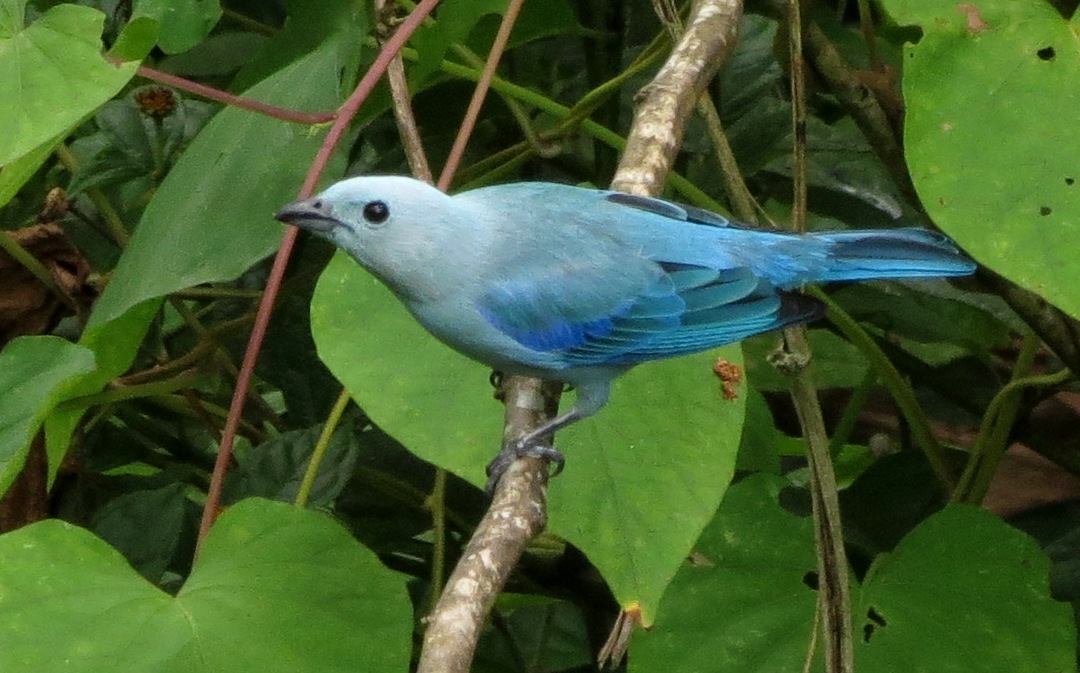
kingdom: Animalia
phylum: Chordata
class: Aves
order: Passeriformes
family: Thraupidae
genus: Thraupis
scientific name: Thraupis episcopus
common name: Blue-grey tanager
